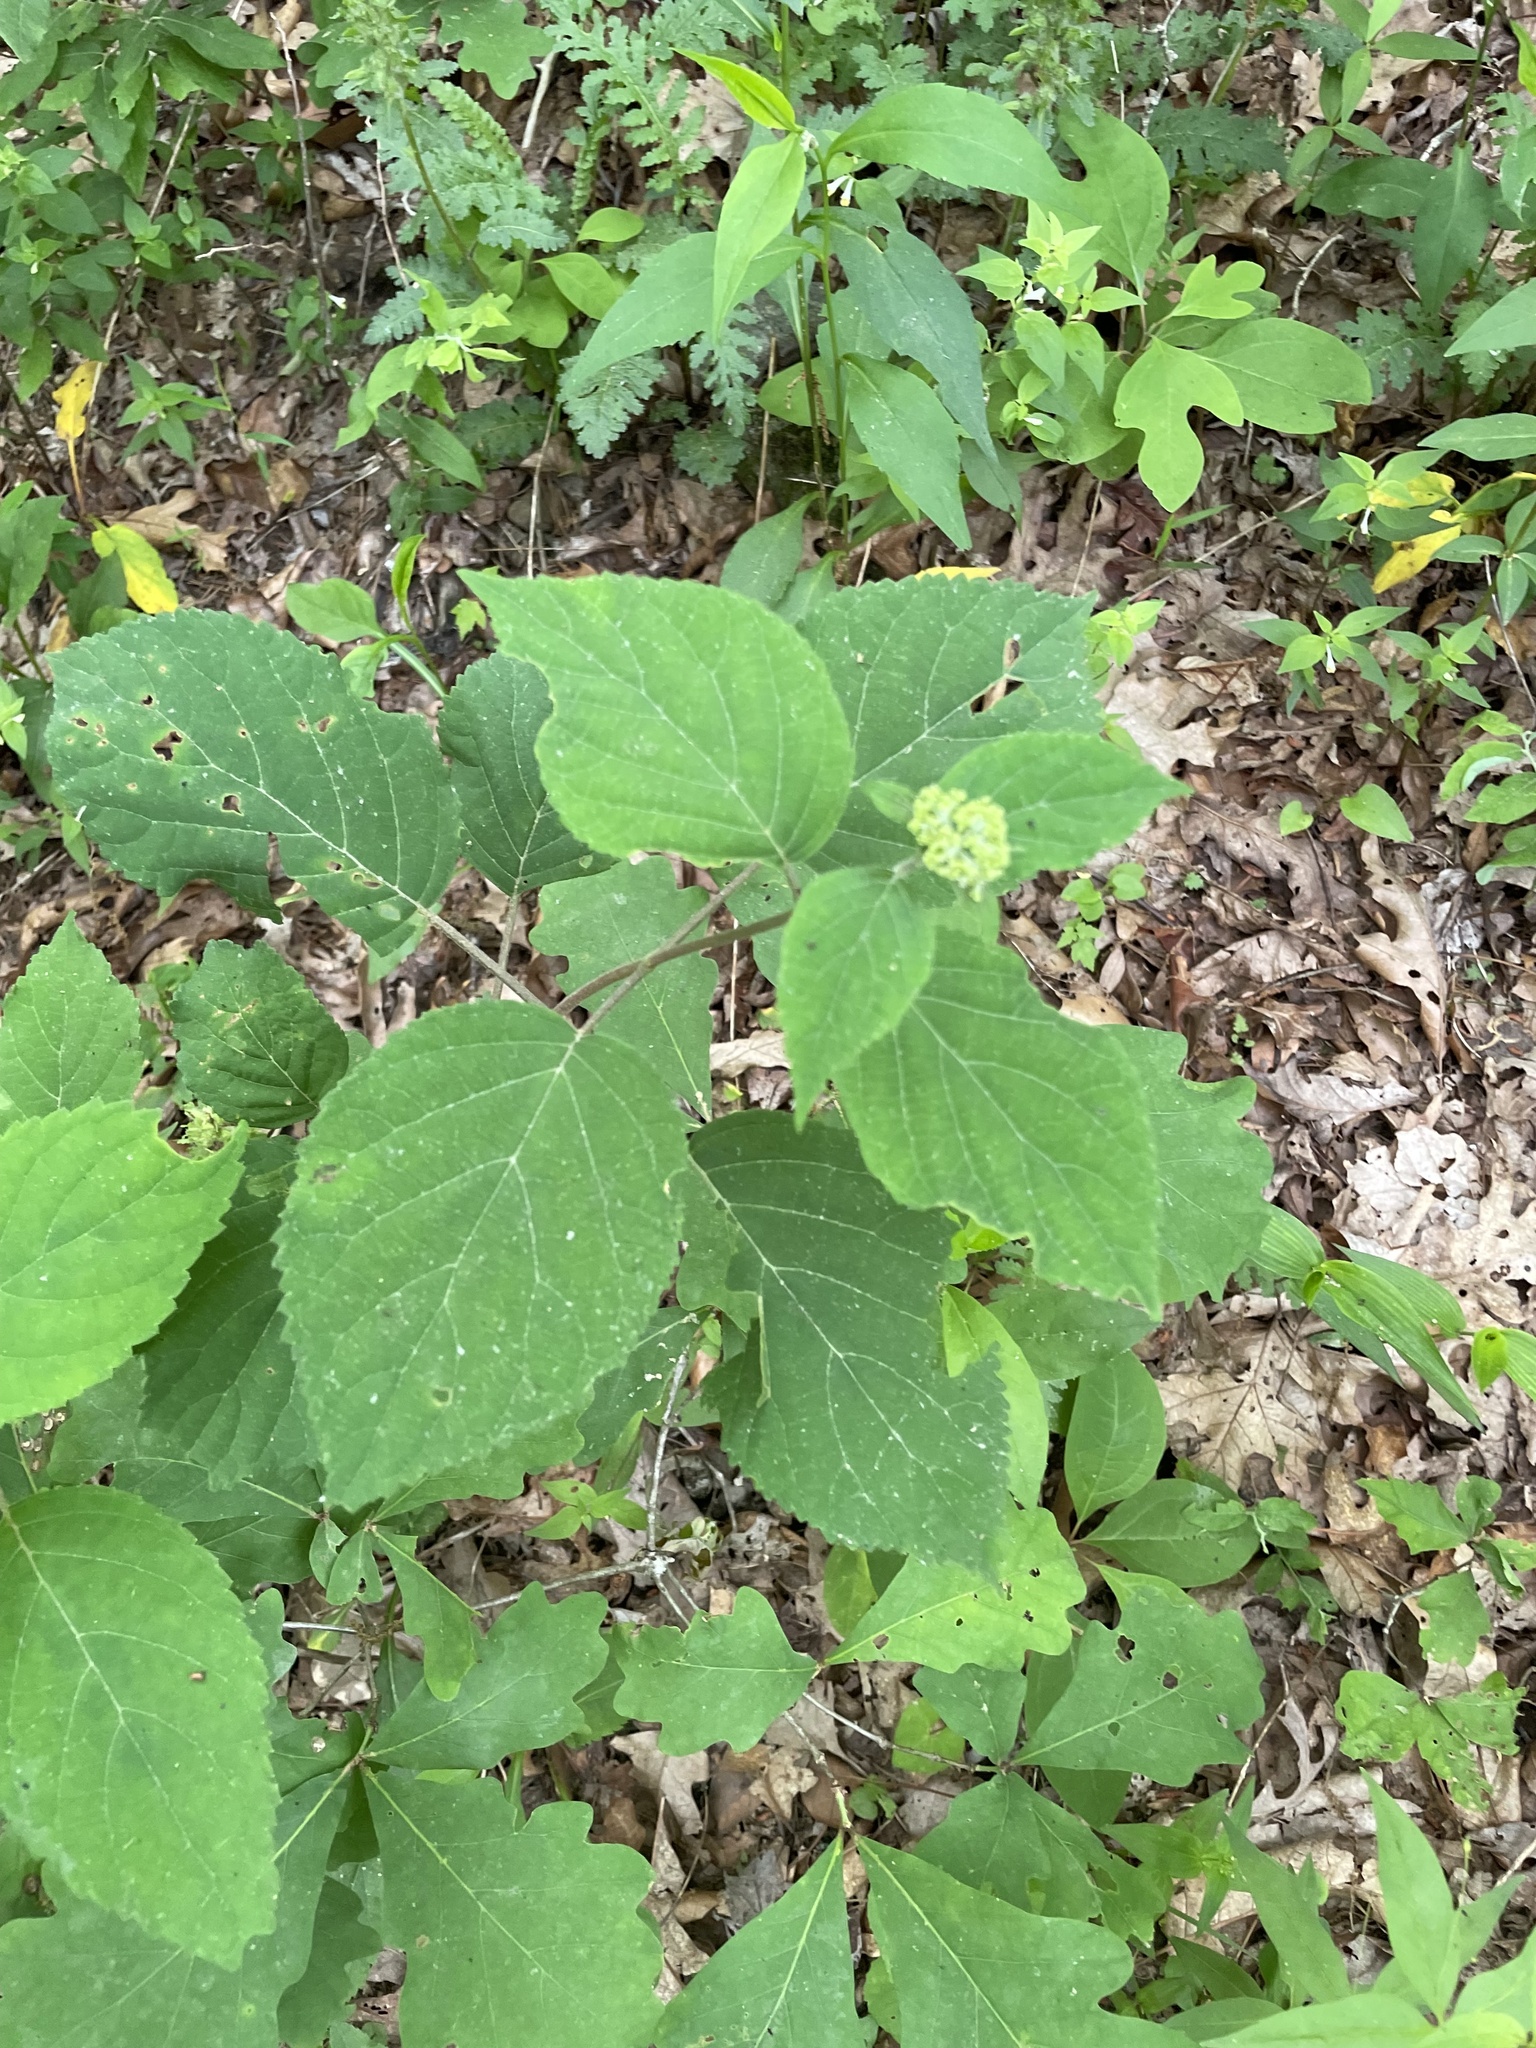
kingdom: Plantae
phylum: Tracheophyta
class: Magnoliopsida
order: Cornales
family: Hydrangeaceae
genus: Hydrangea
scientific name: Hydrangea arborescens
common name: Sevenbark
